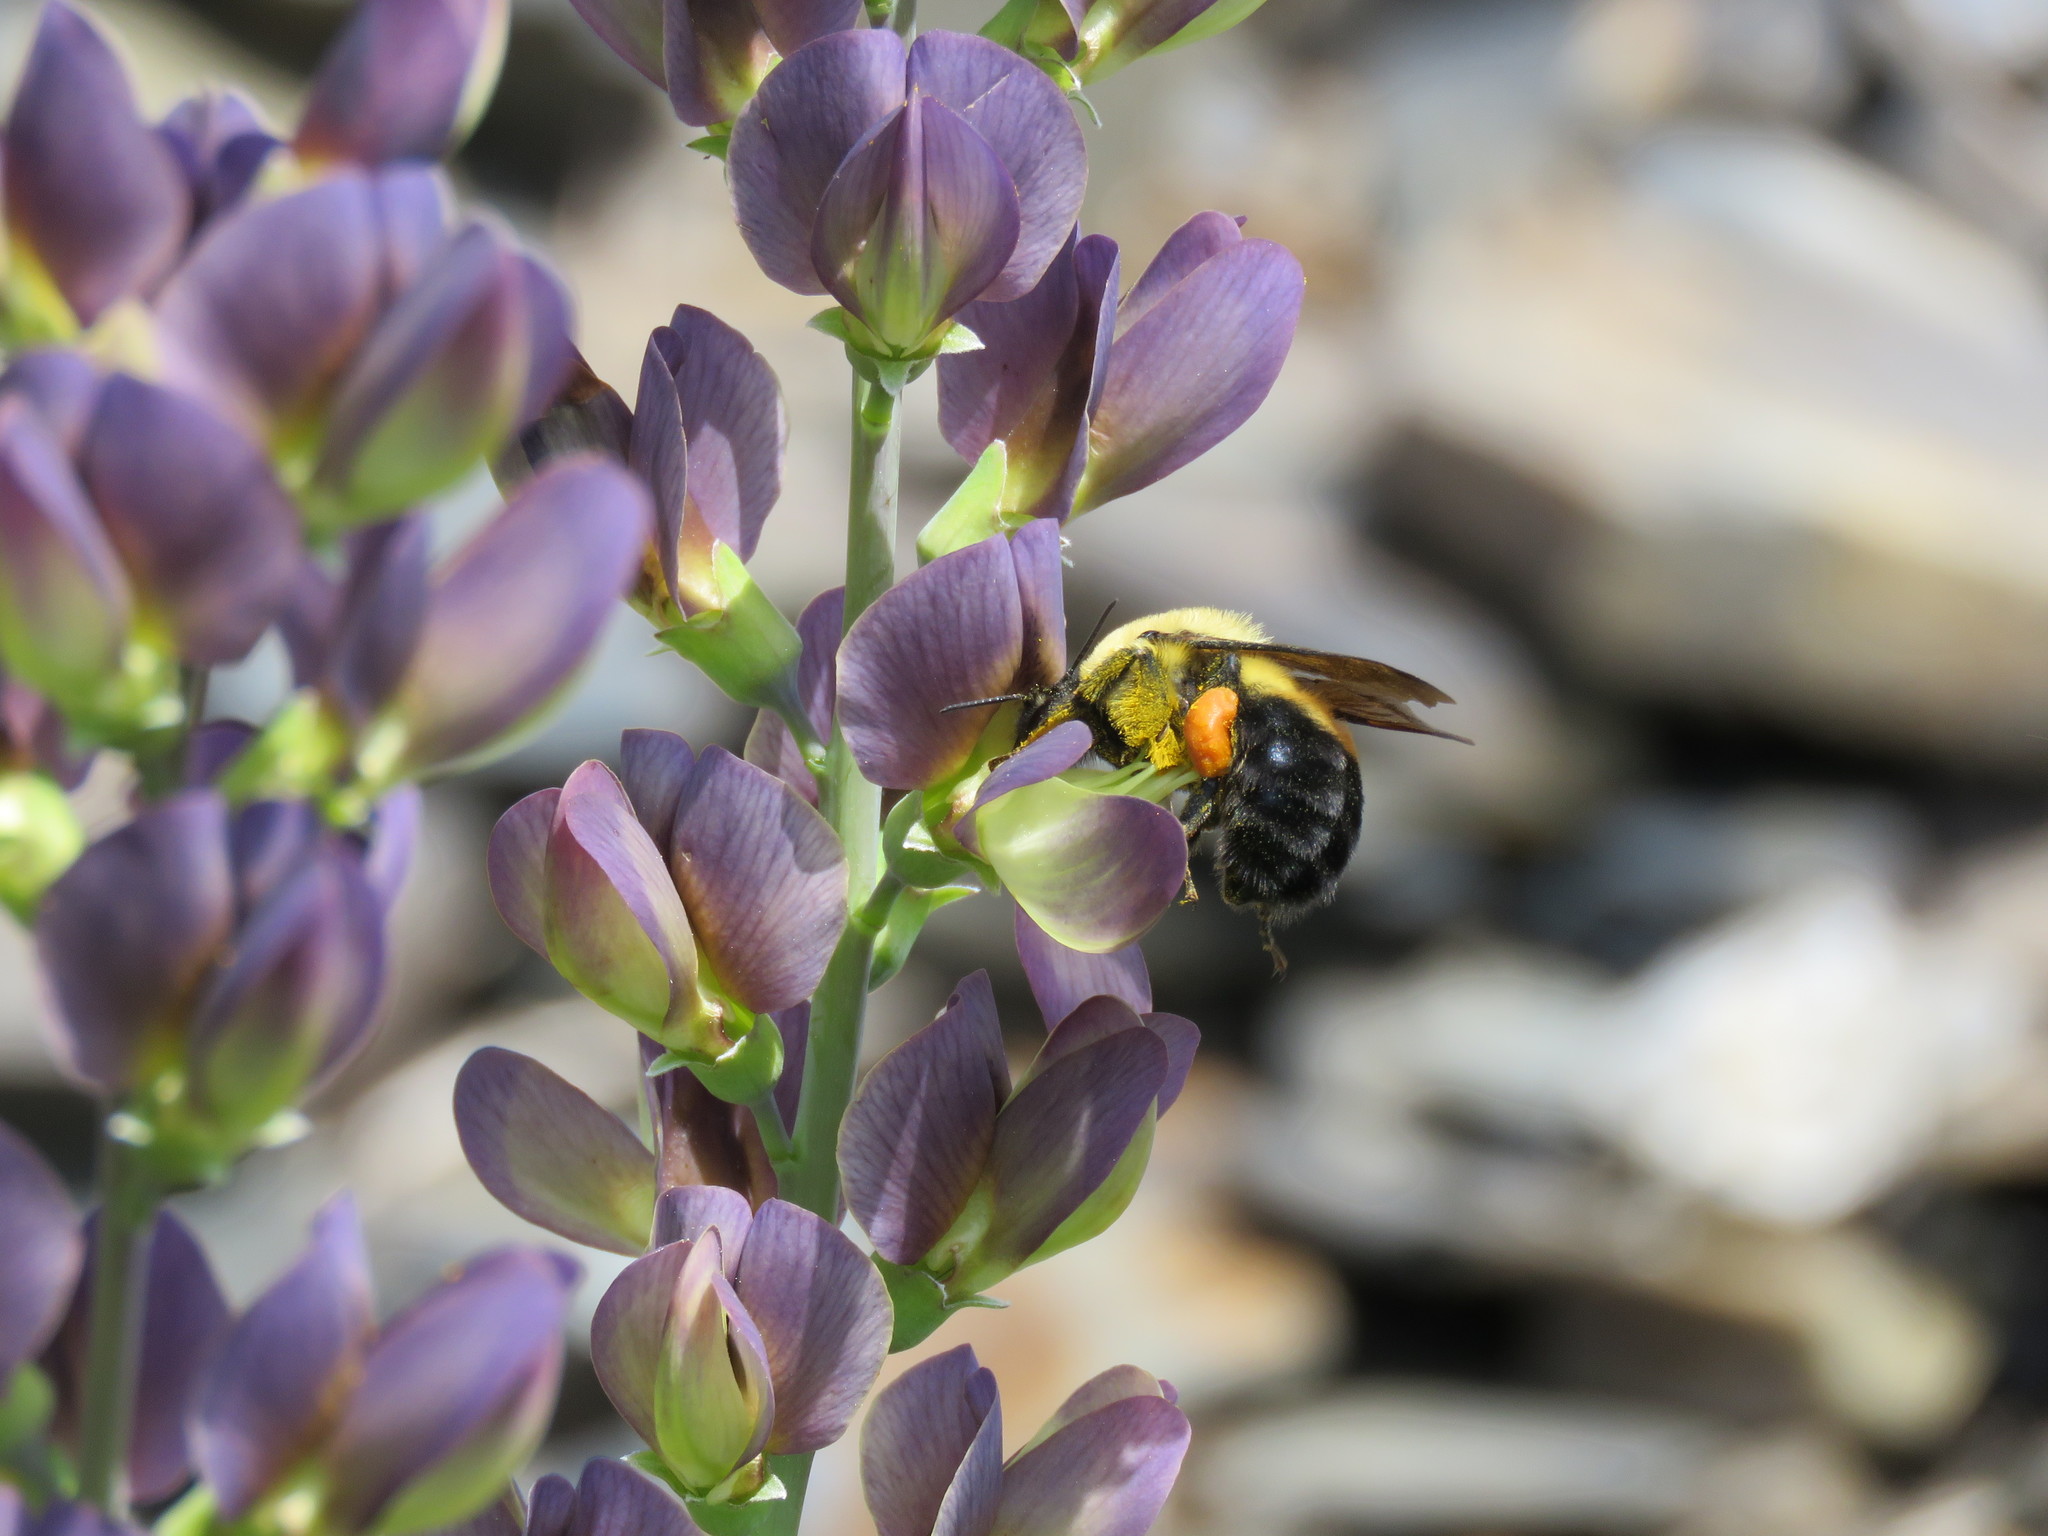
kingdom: Animalia
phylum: Arthropoda
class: Insecta
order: Hymenoptera
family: Apidae
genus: Bombus
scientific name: Bombus griseocollis
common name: Brown-belted bumble bee
